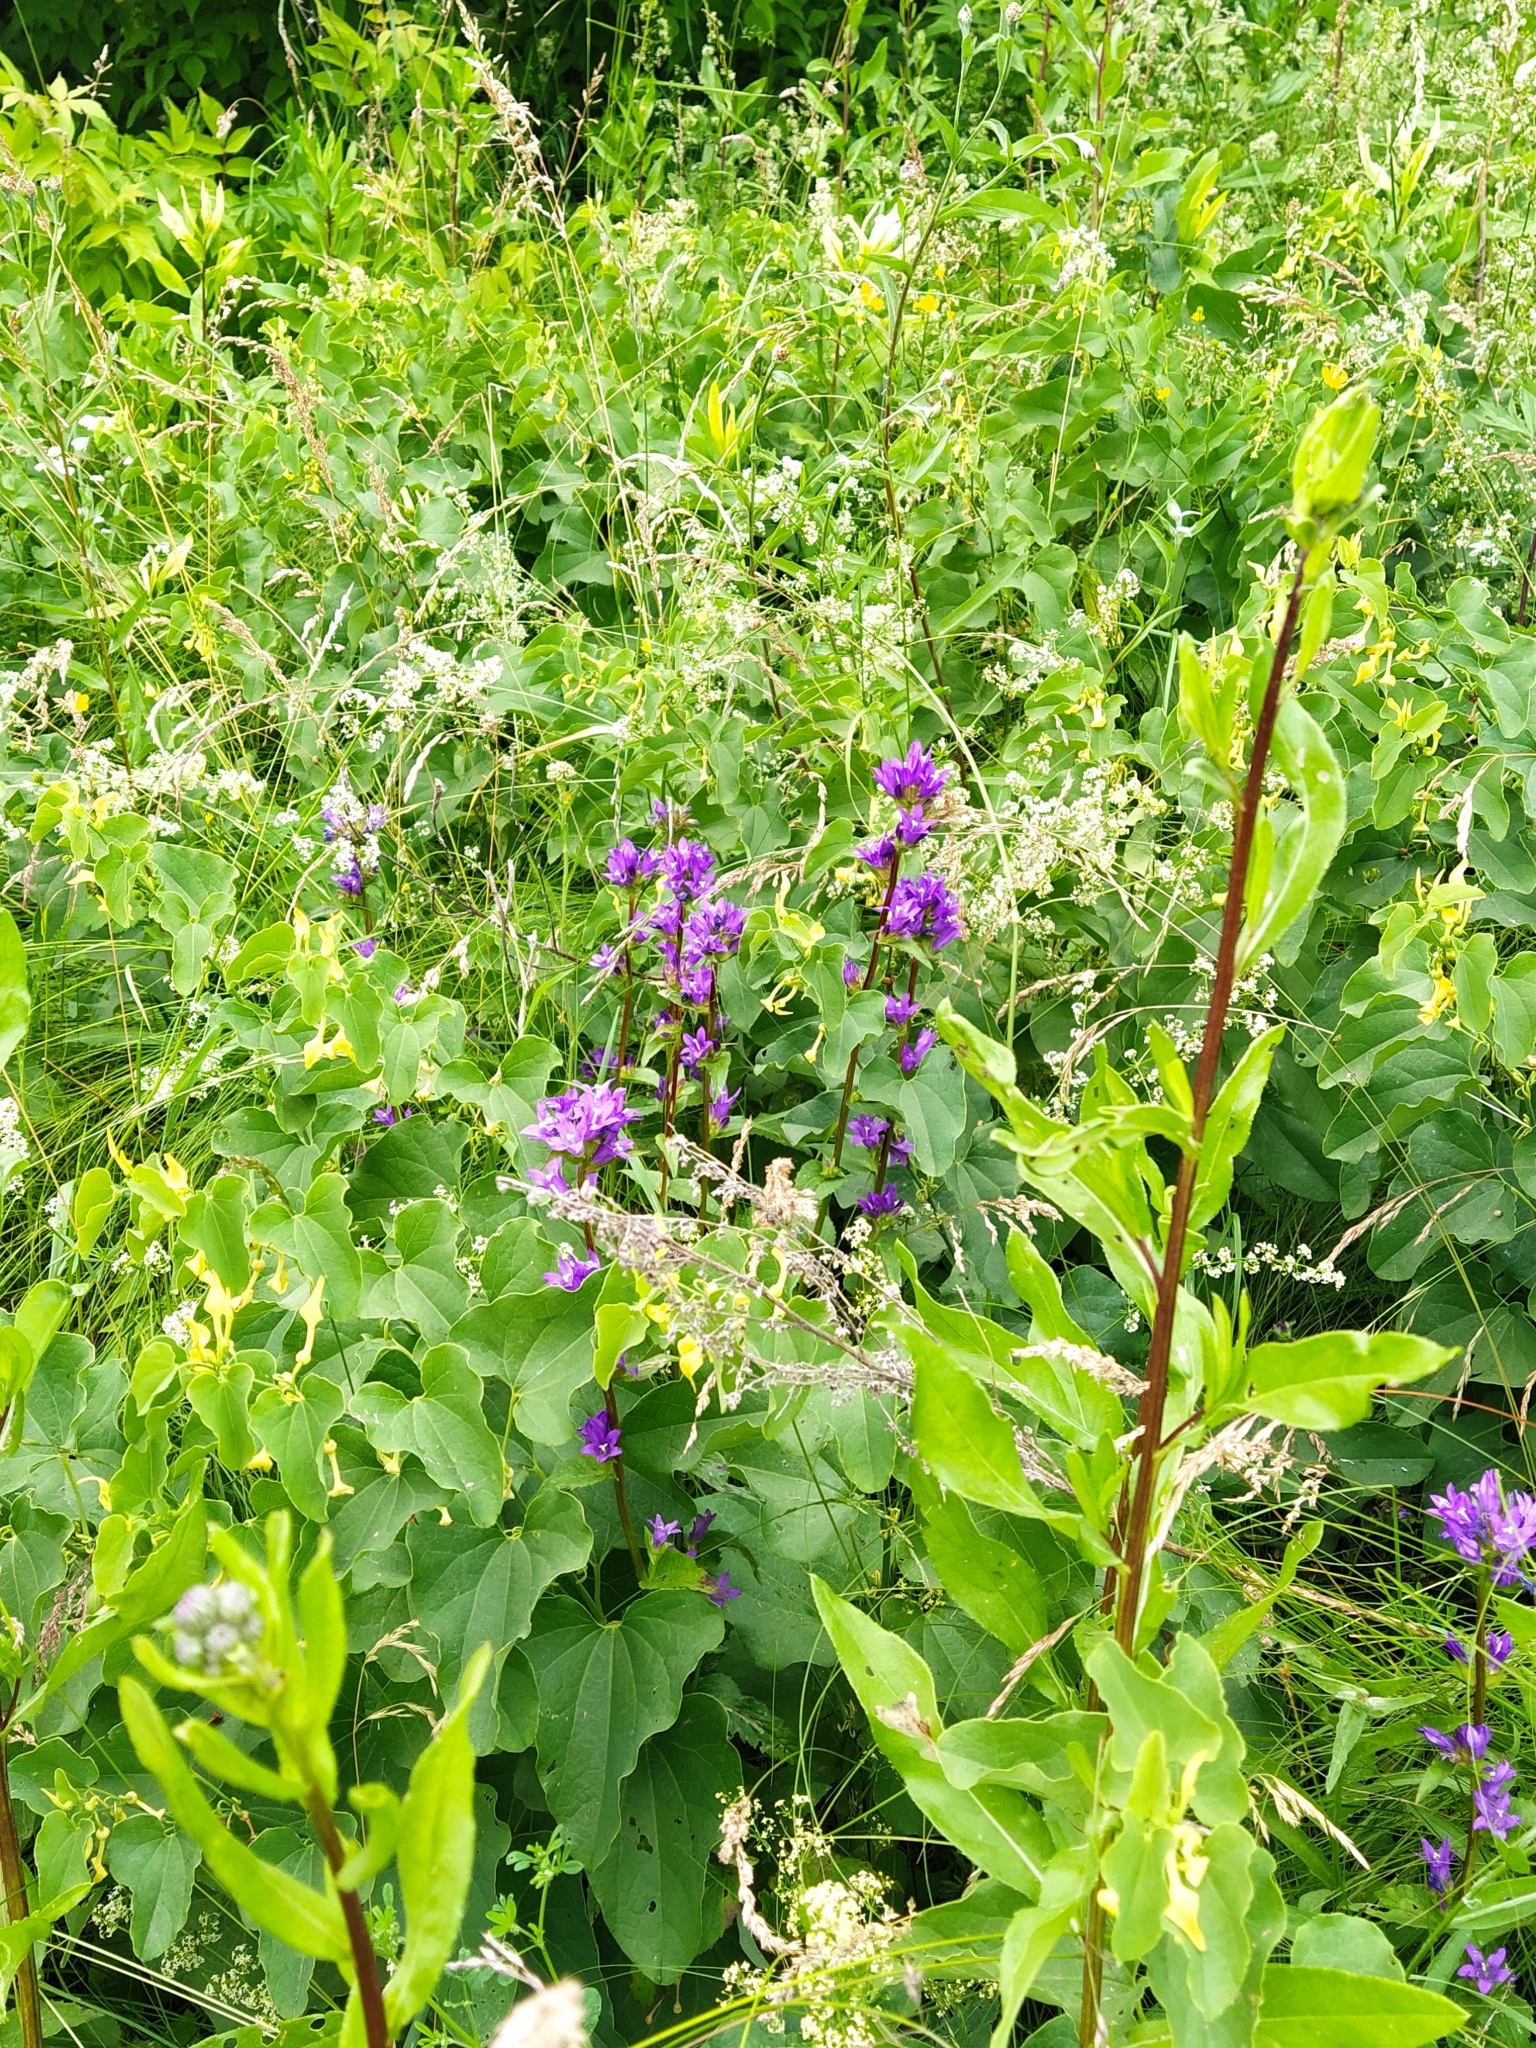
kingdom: Plantae
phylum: Tracheophyta
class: Magnoliopsida
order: Asterales
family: Campanulaceae
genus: Campanula
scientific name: Campanula glomerata
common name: Clustered bellflower
